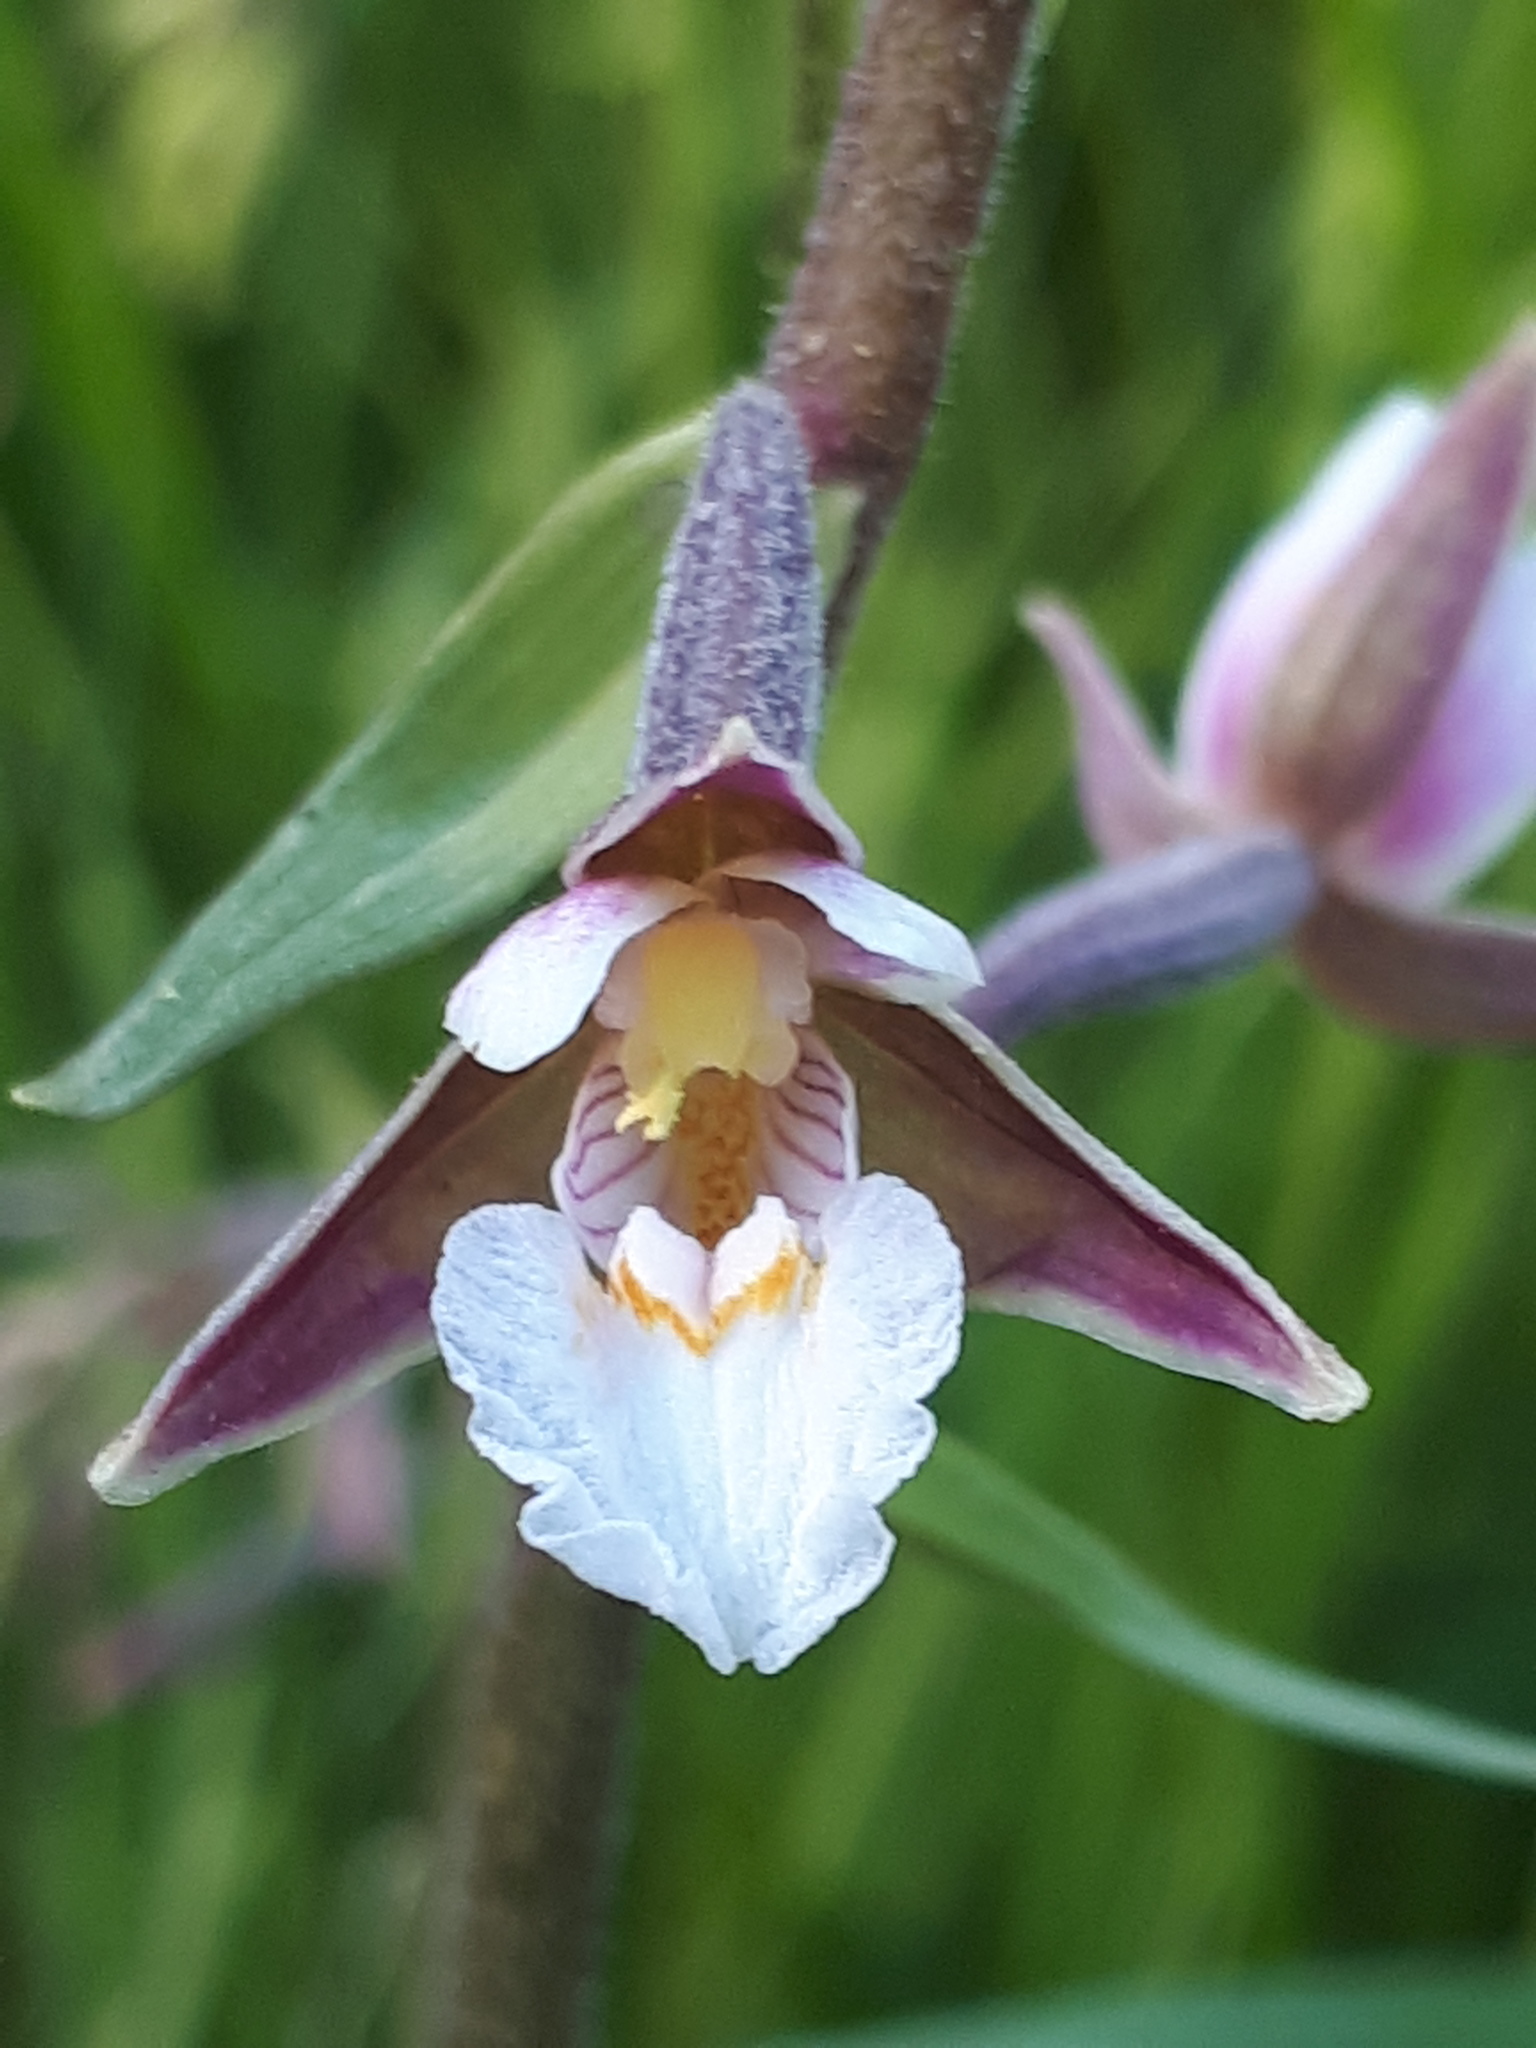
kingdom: Plantae
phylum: Tracheophyta
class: Liliopsida
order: Asparagales
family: Orchidaceae
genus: Epipactis
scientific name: Epipactis palustris
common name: Marsh helleborine
